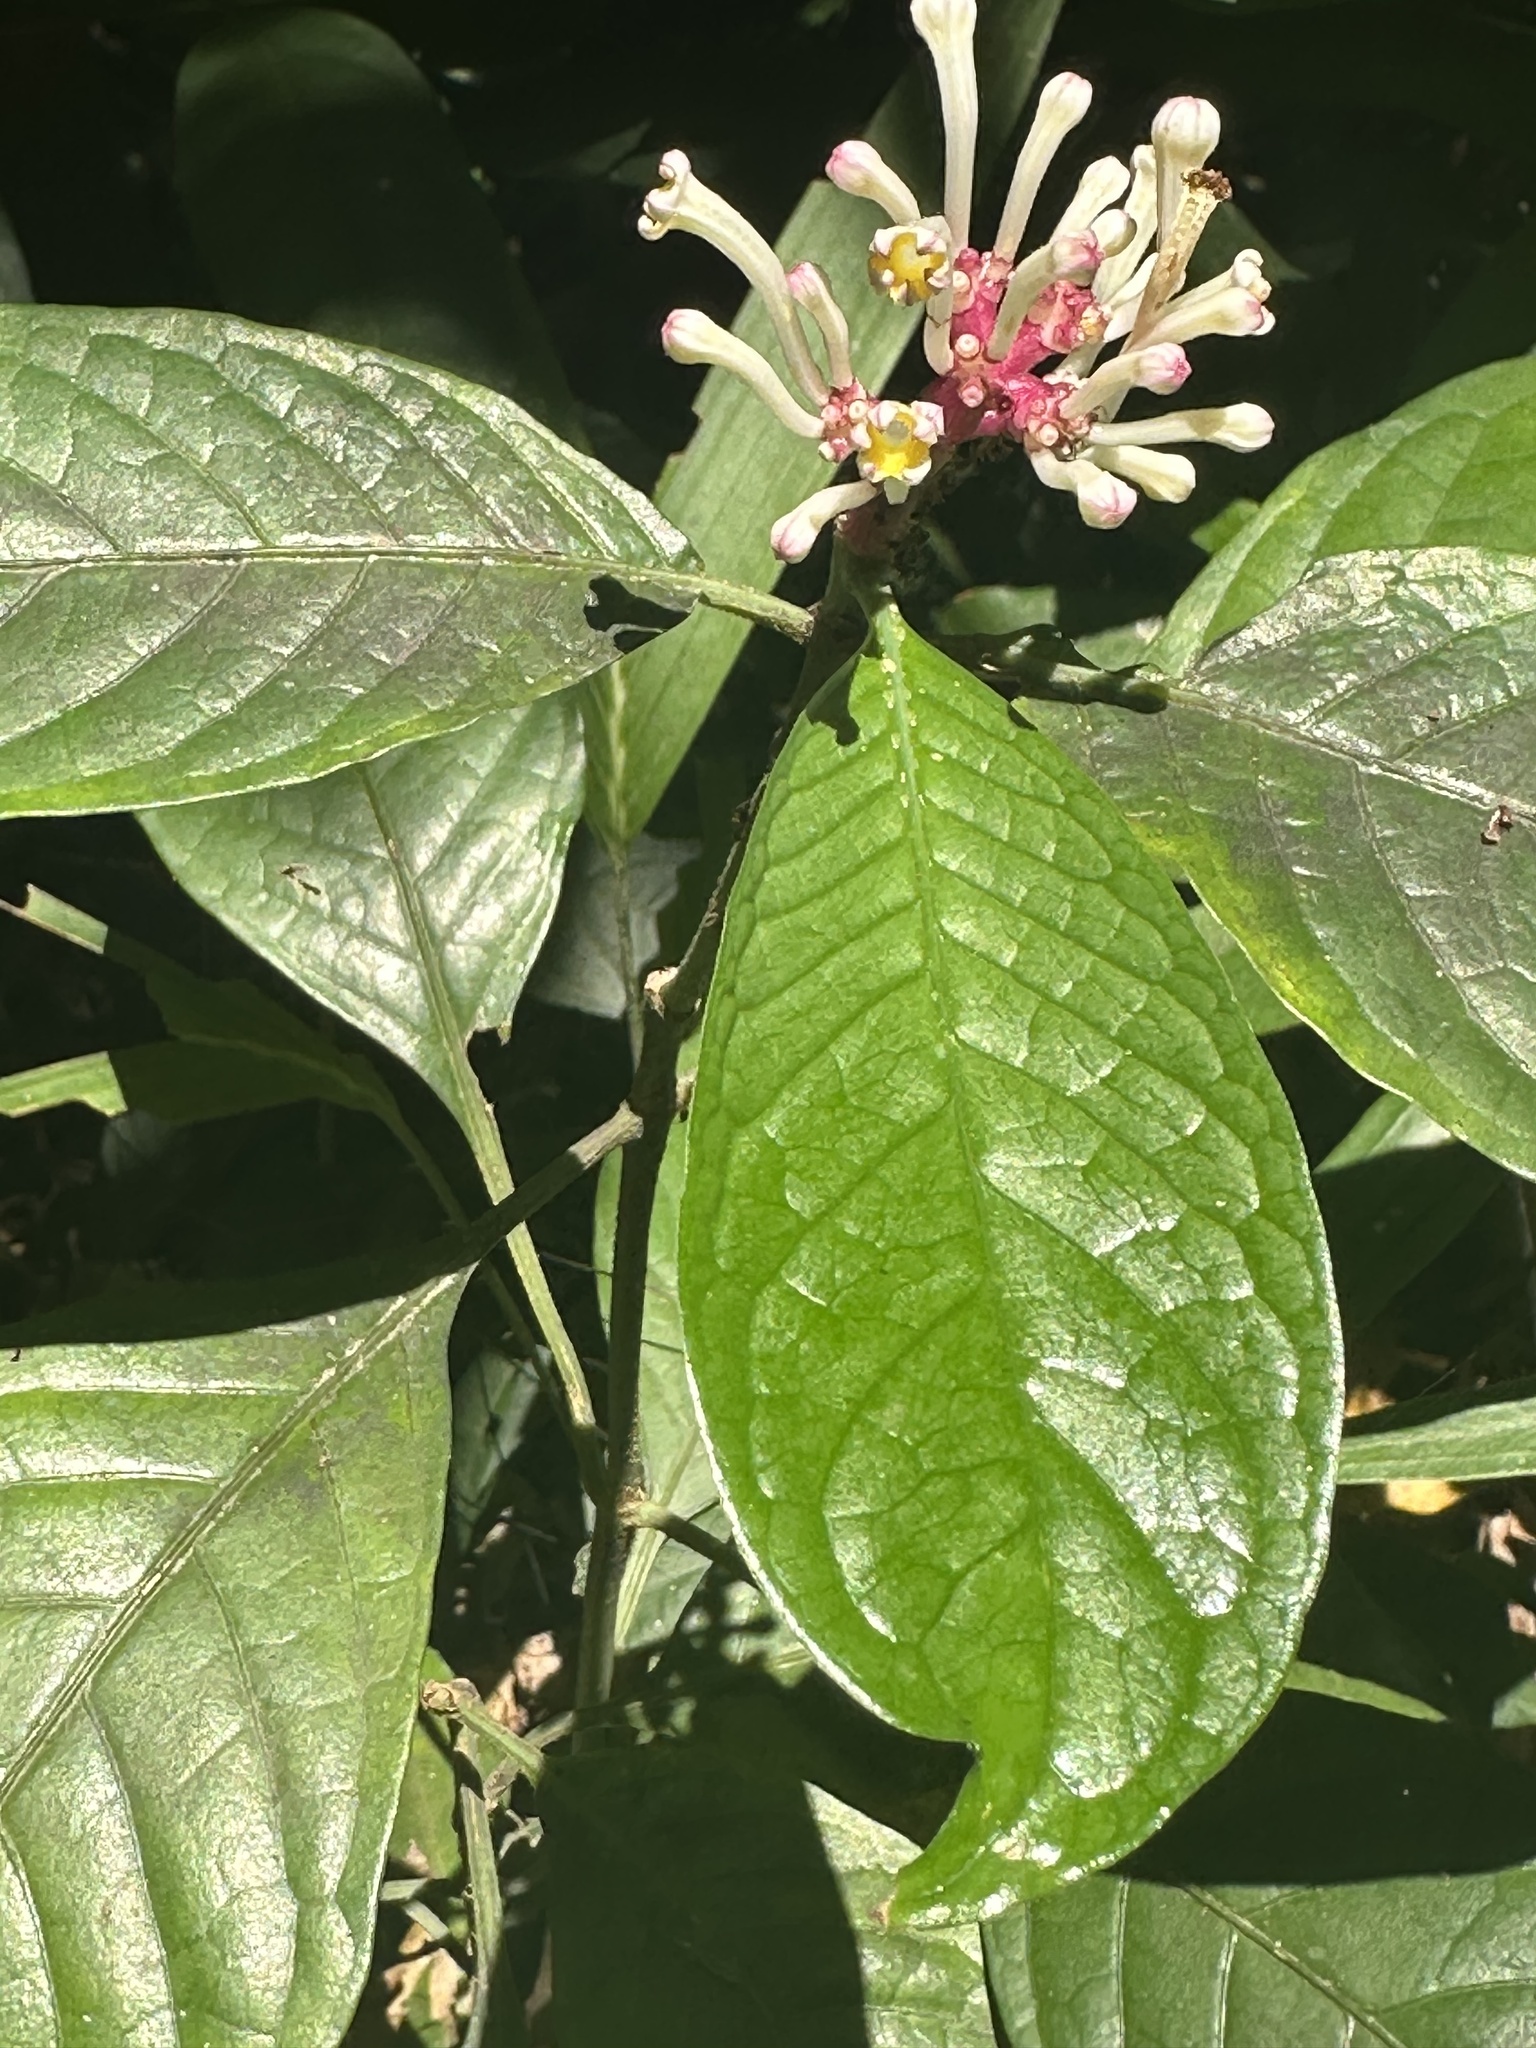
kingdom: Plantae
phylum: Tracheophyta
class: Magnoliopsida
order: Gentianales
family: Rubiaceae
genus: Chassalia
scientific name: Chassalia curviflora
